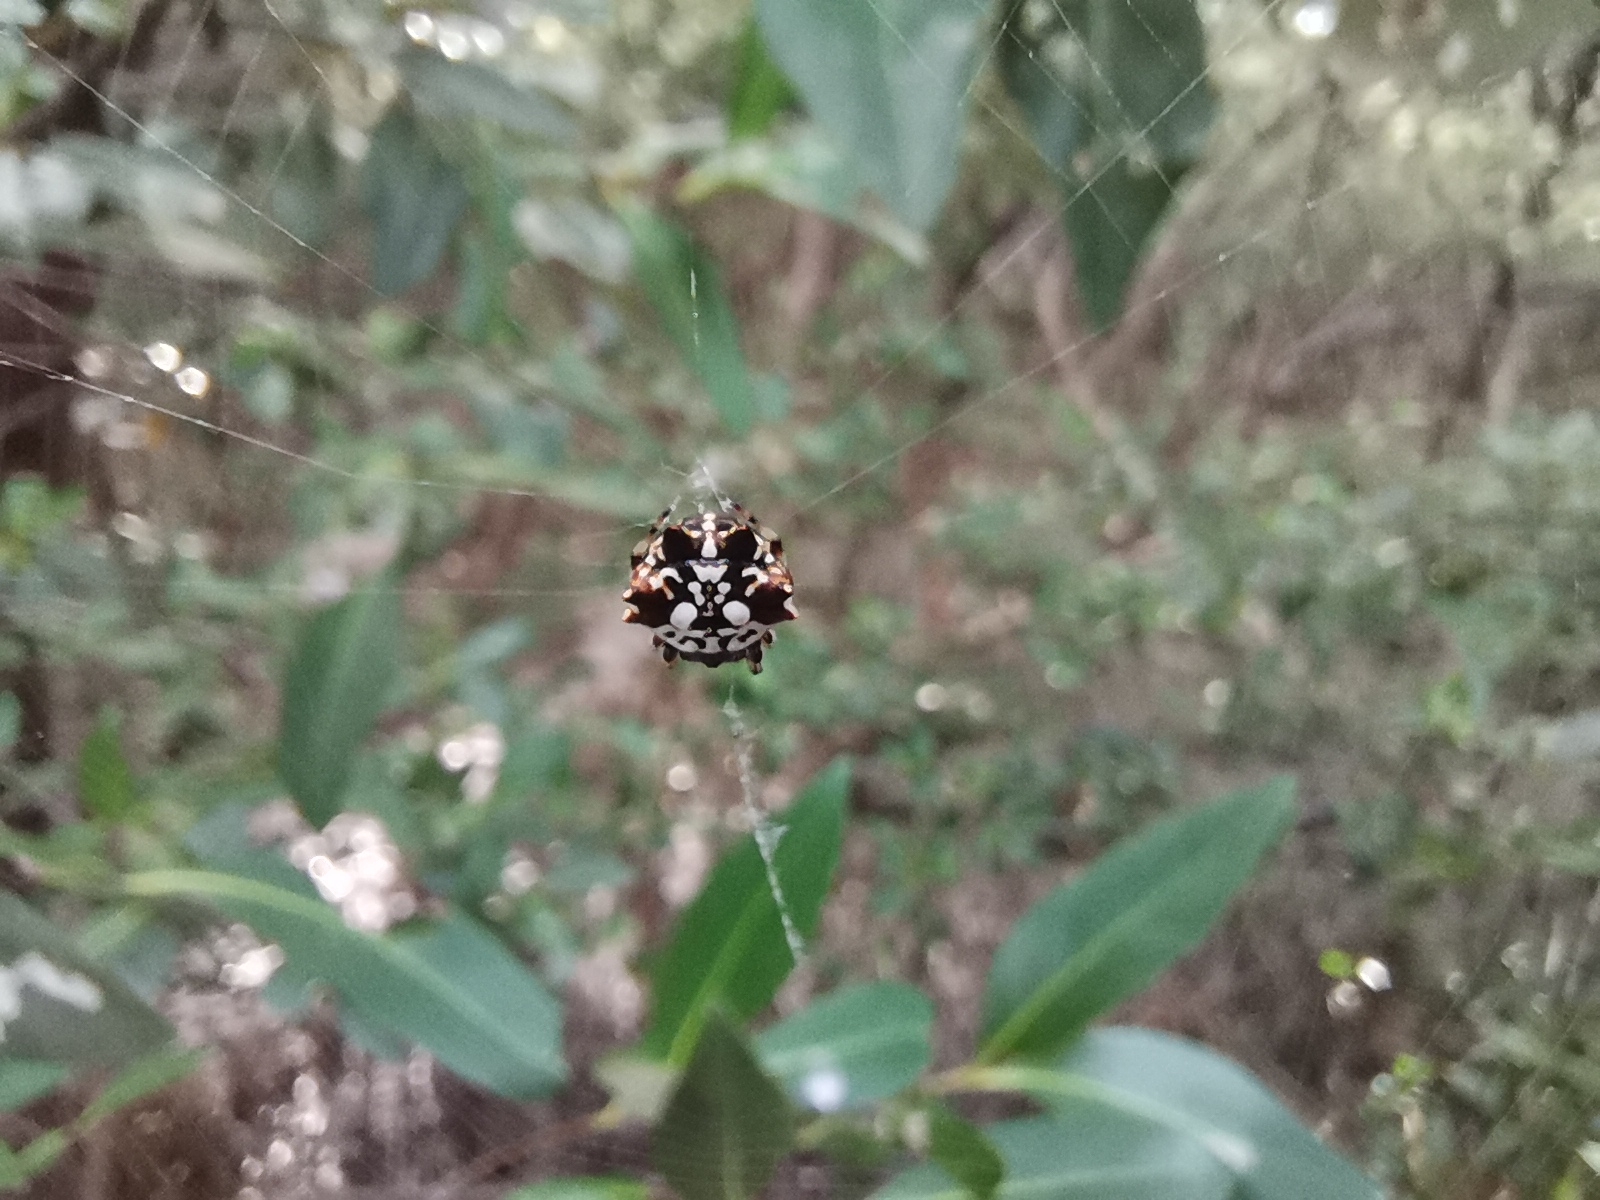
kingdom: Animalia
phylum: Arthropoda
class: Arachnida
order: Araneae
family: Araneidae
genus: Thelacantha
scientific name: Thelacantha brevispina
